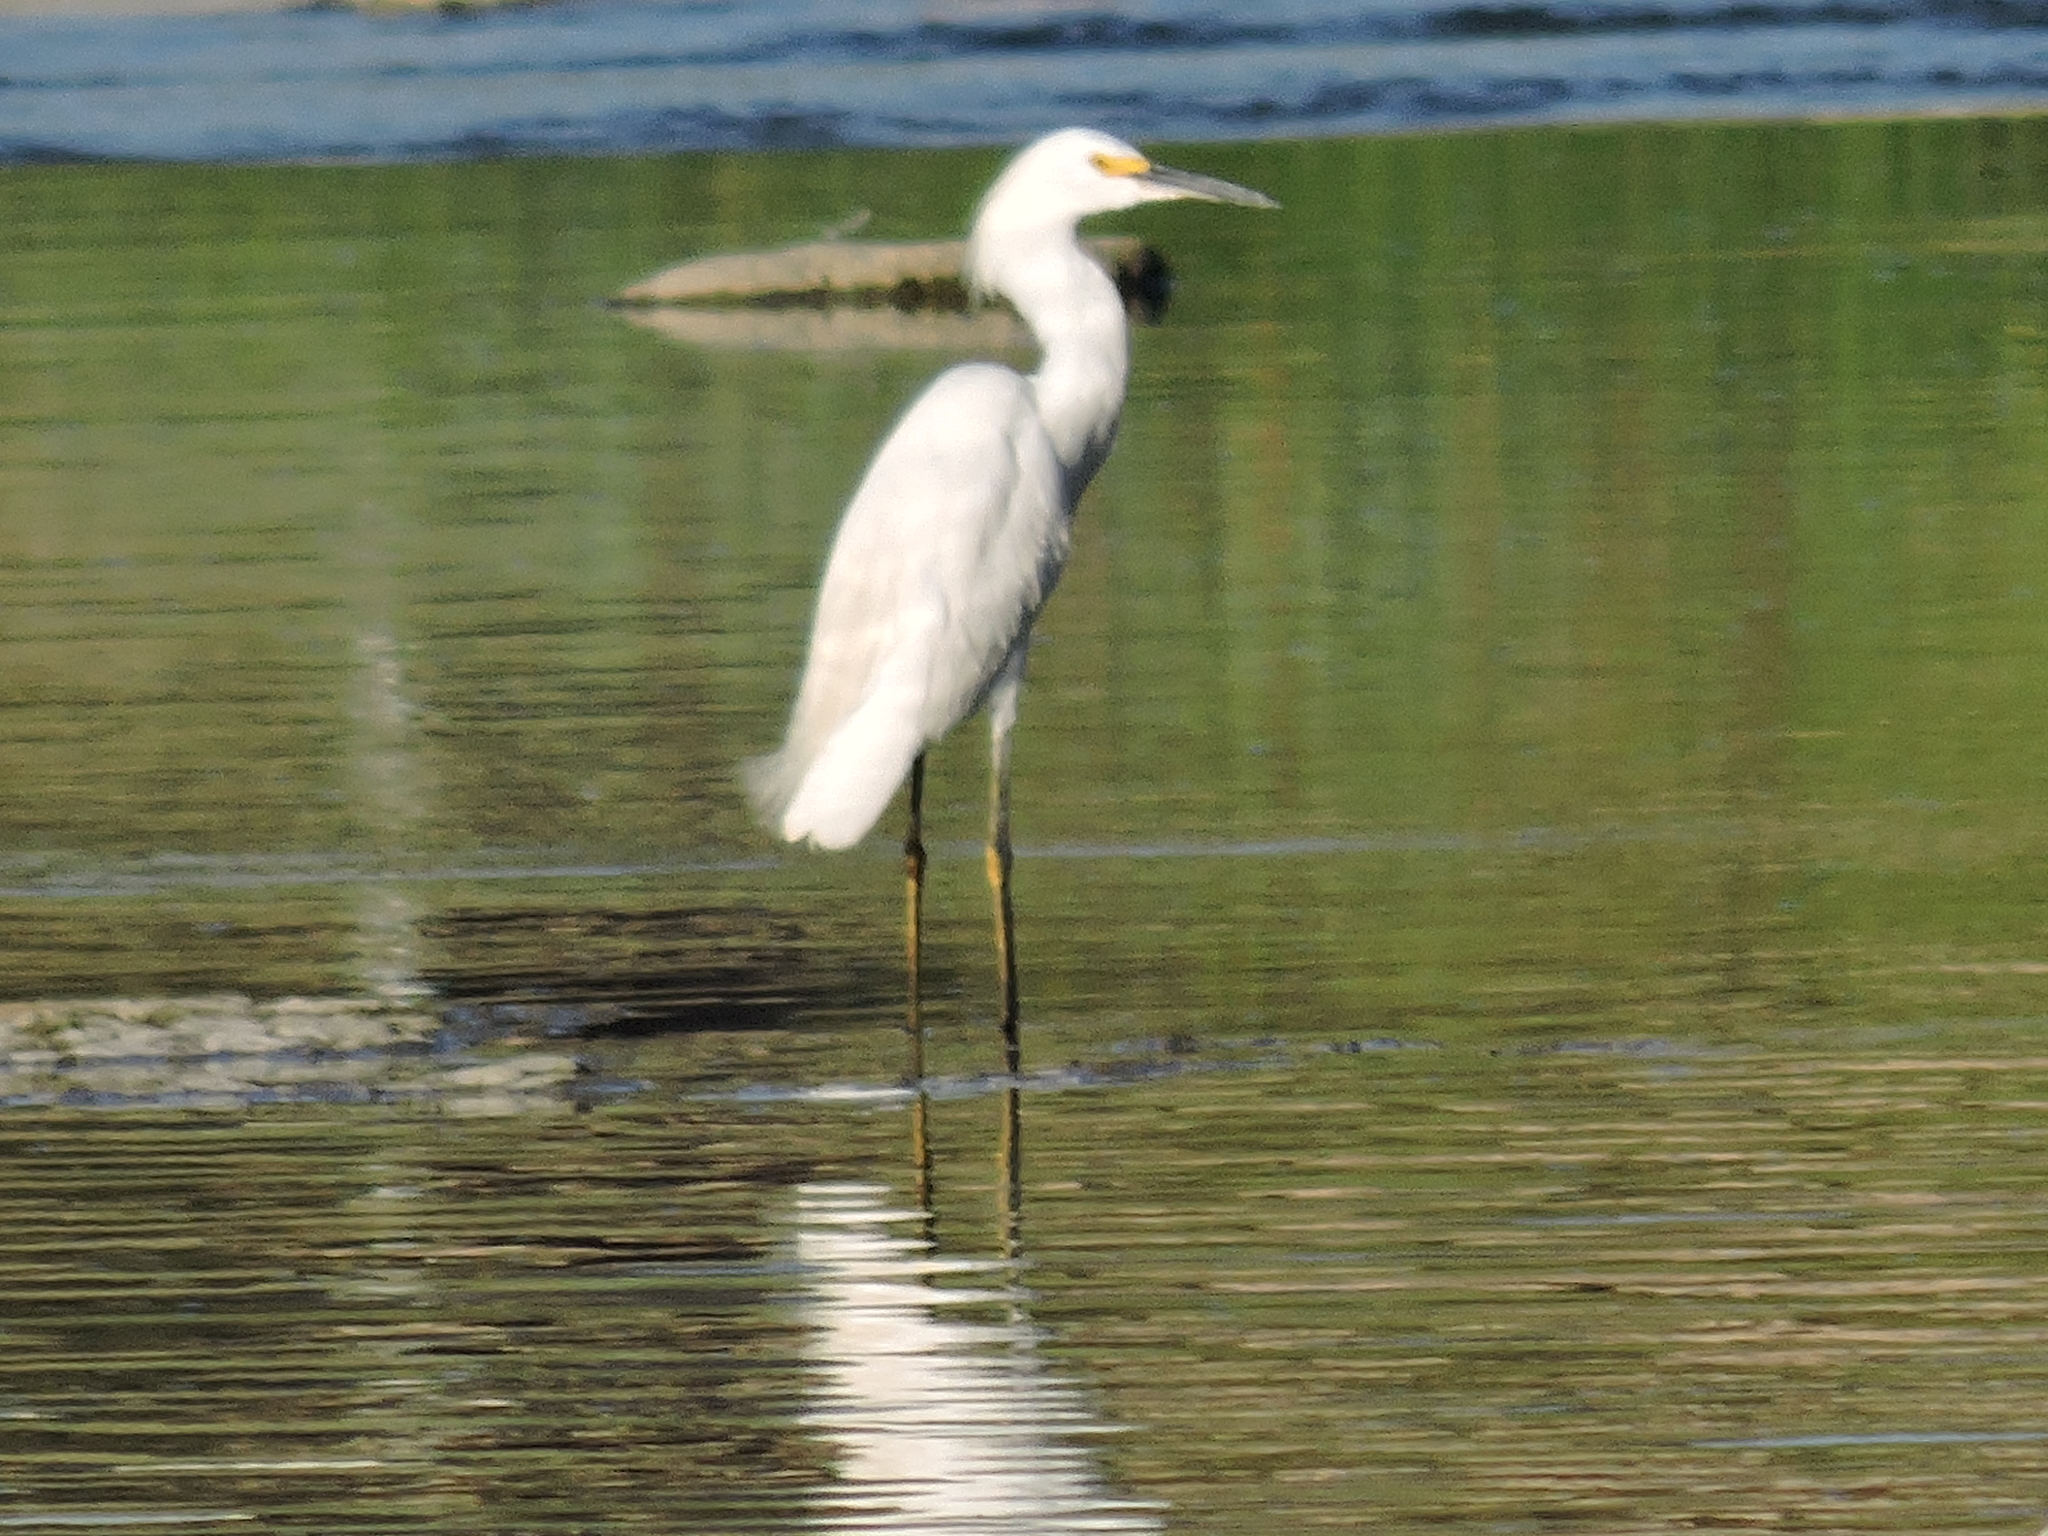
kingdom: Animalia
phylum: Chordata
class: Aves
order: Pelecaniformes
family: Ardeidae
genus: Egretta
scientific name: Egretta thula
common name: Snowy egret
